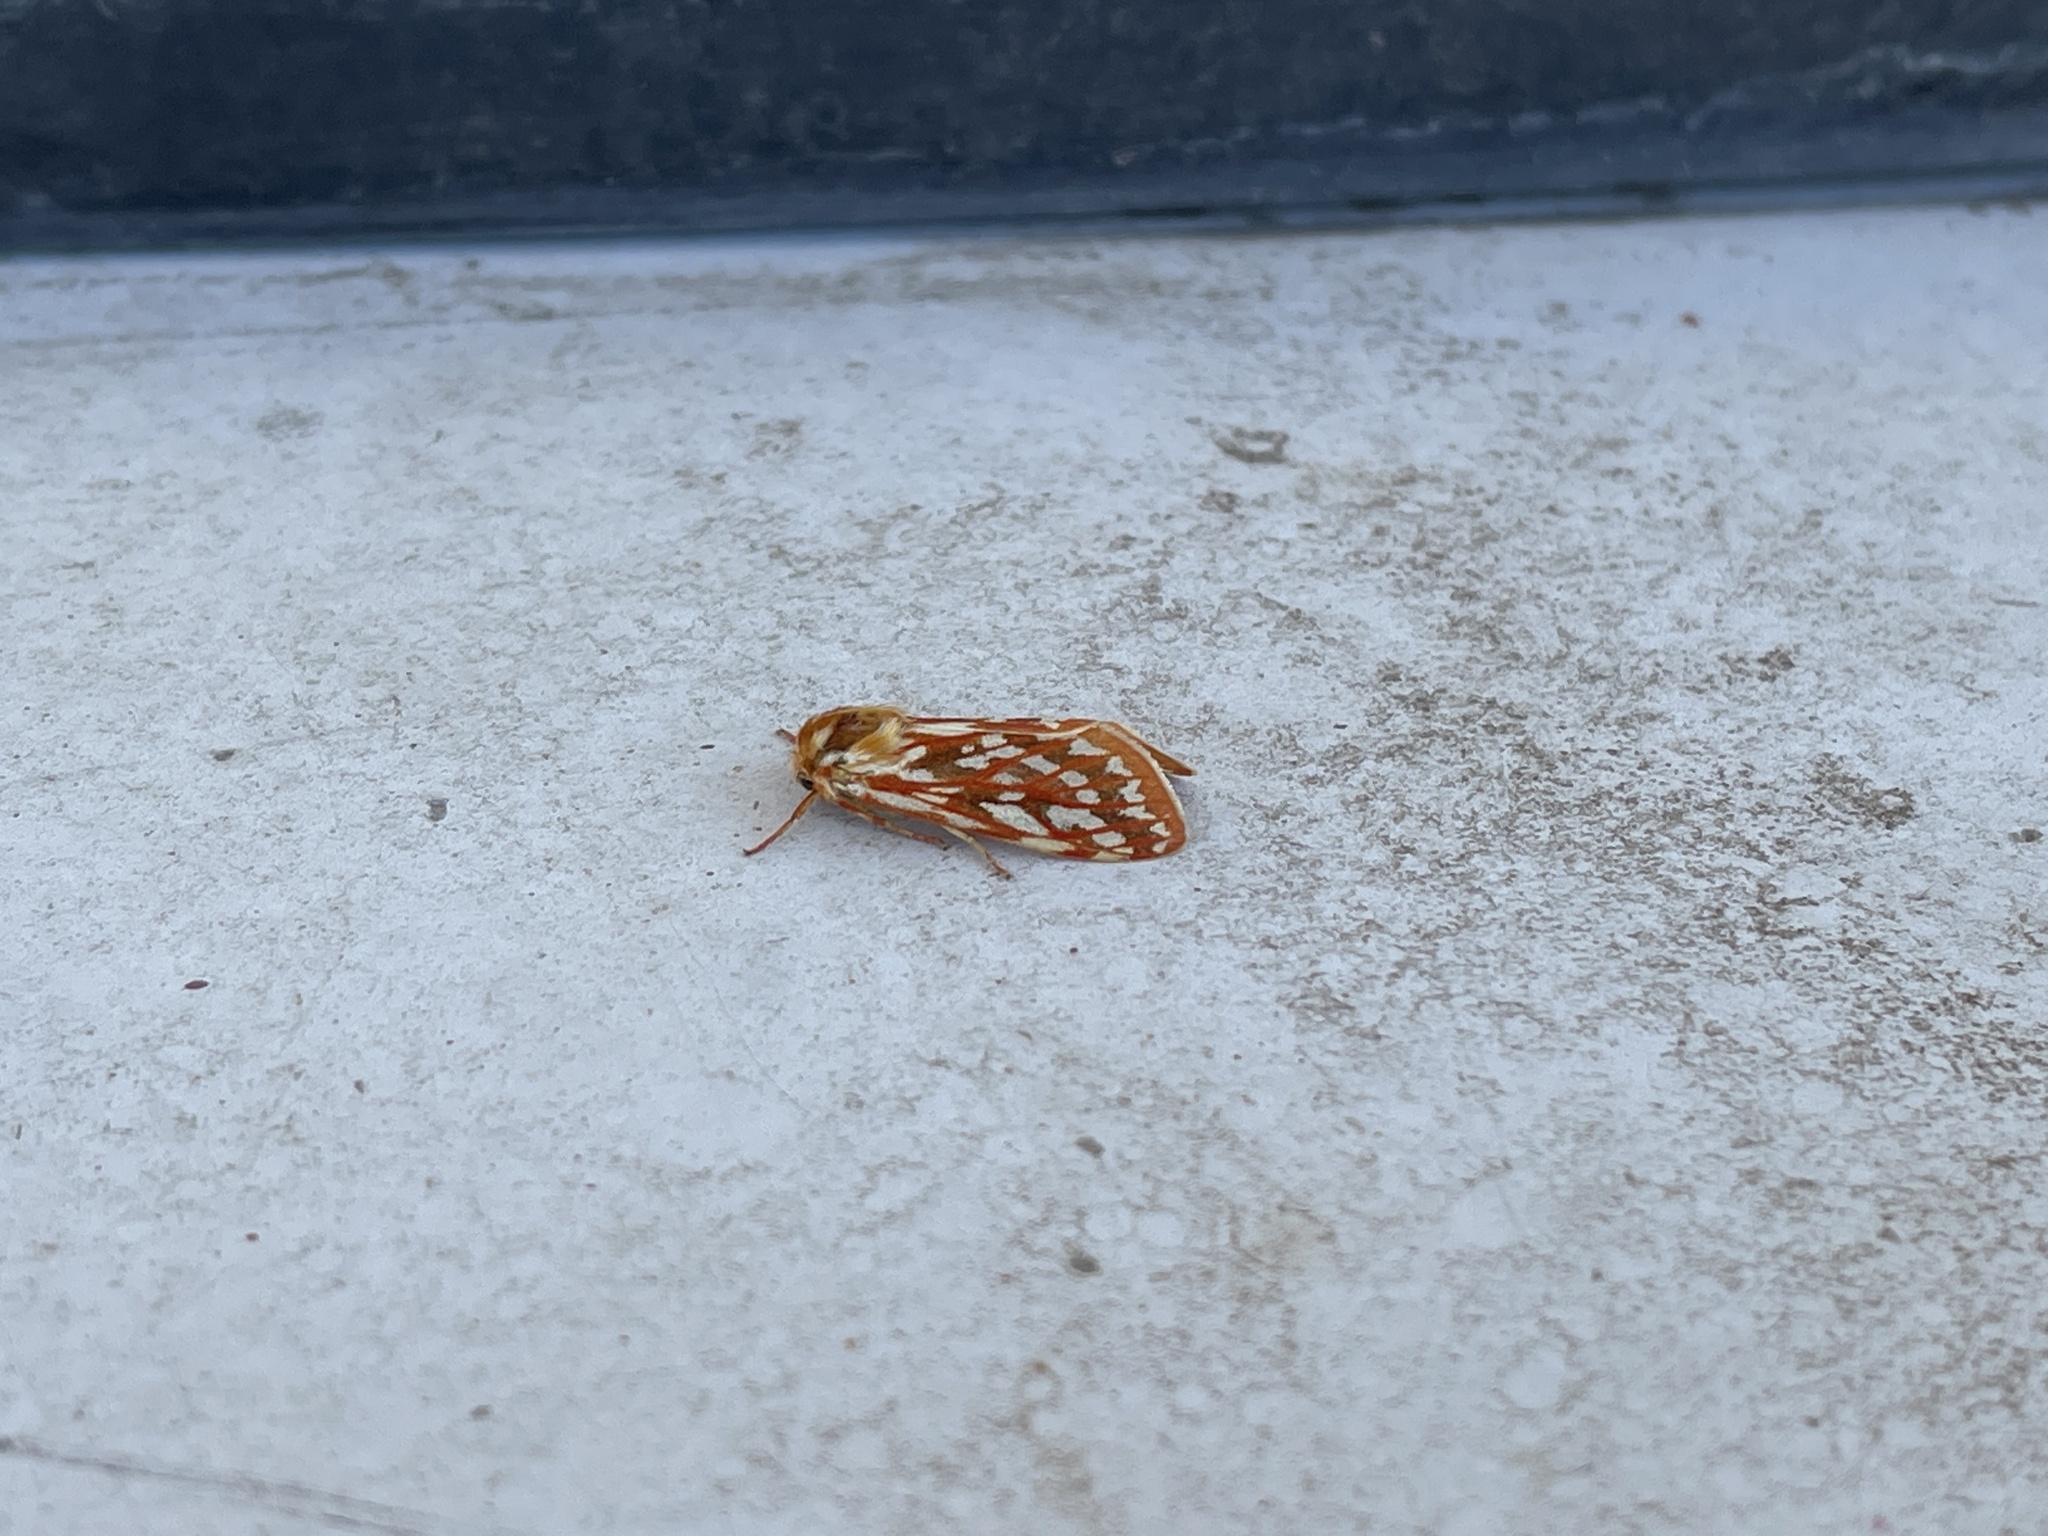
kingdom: Animalia
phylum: Arthropoda
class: Insecta
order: Lepidoptera
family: Erebidae
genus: Lophocampa
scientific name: Lophocampa roseata
